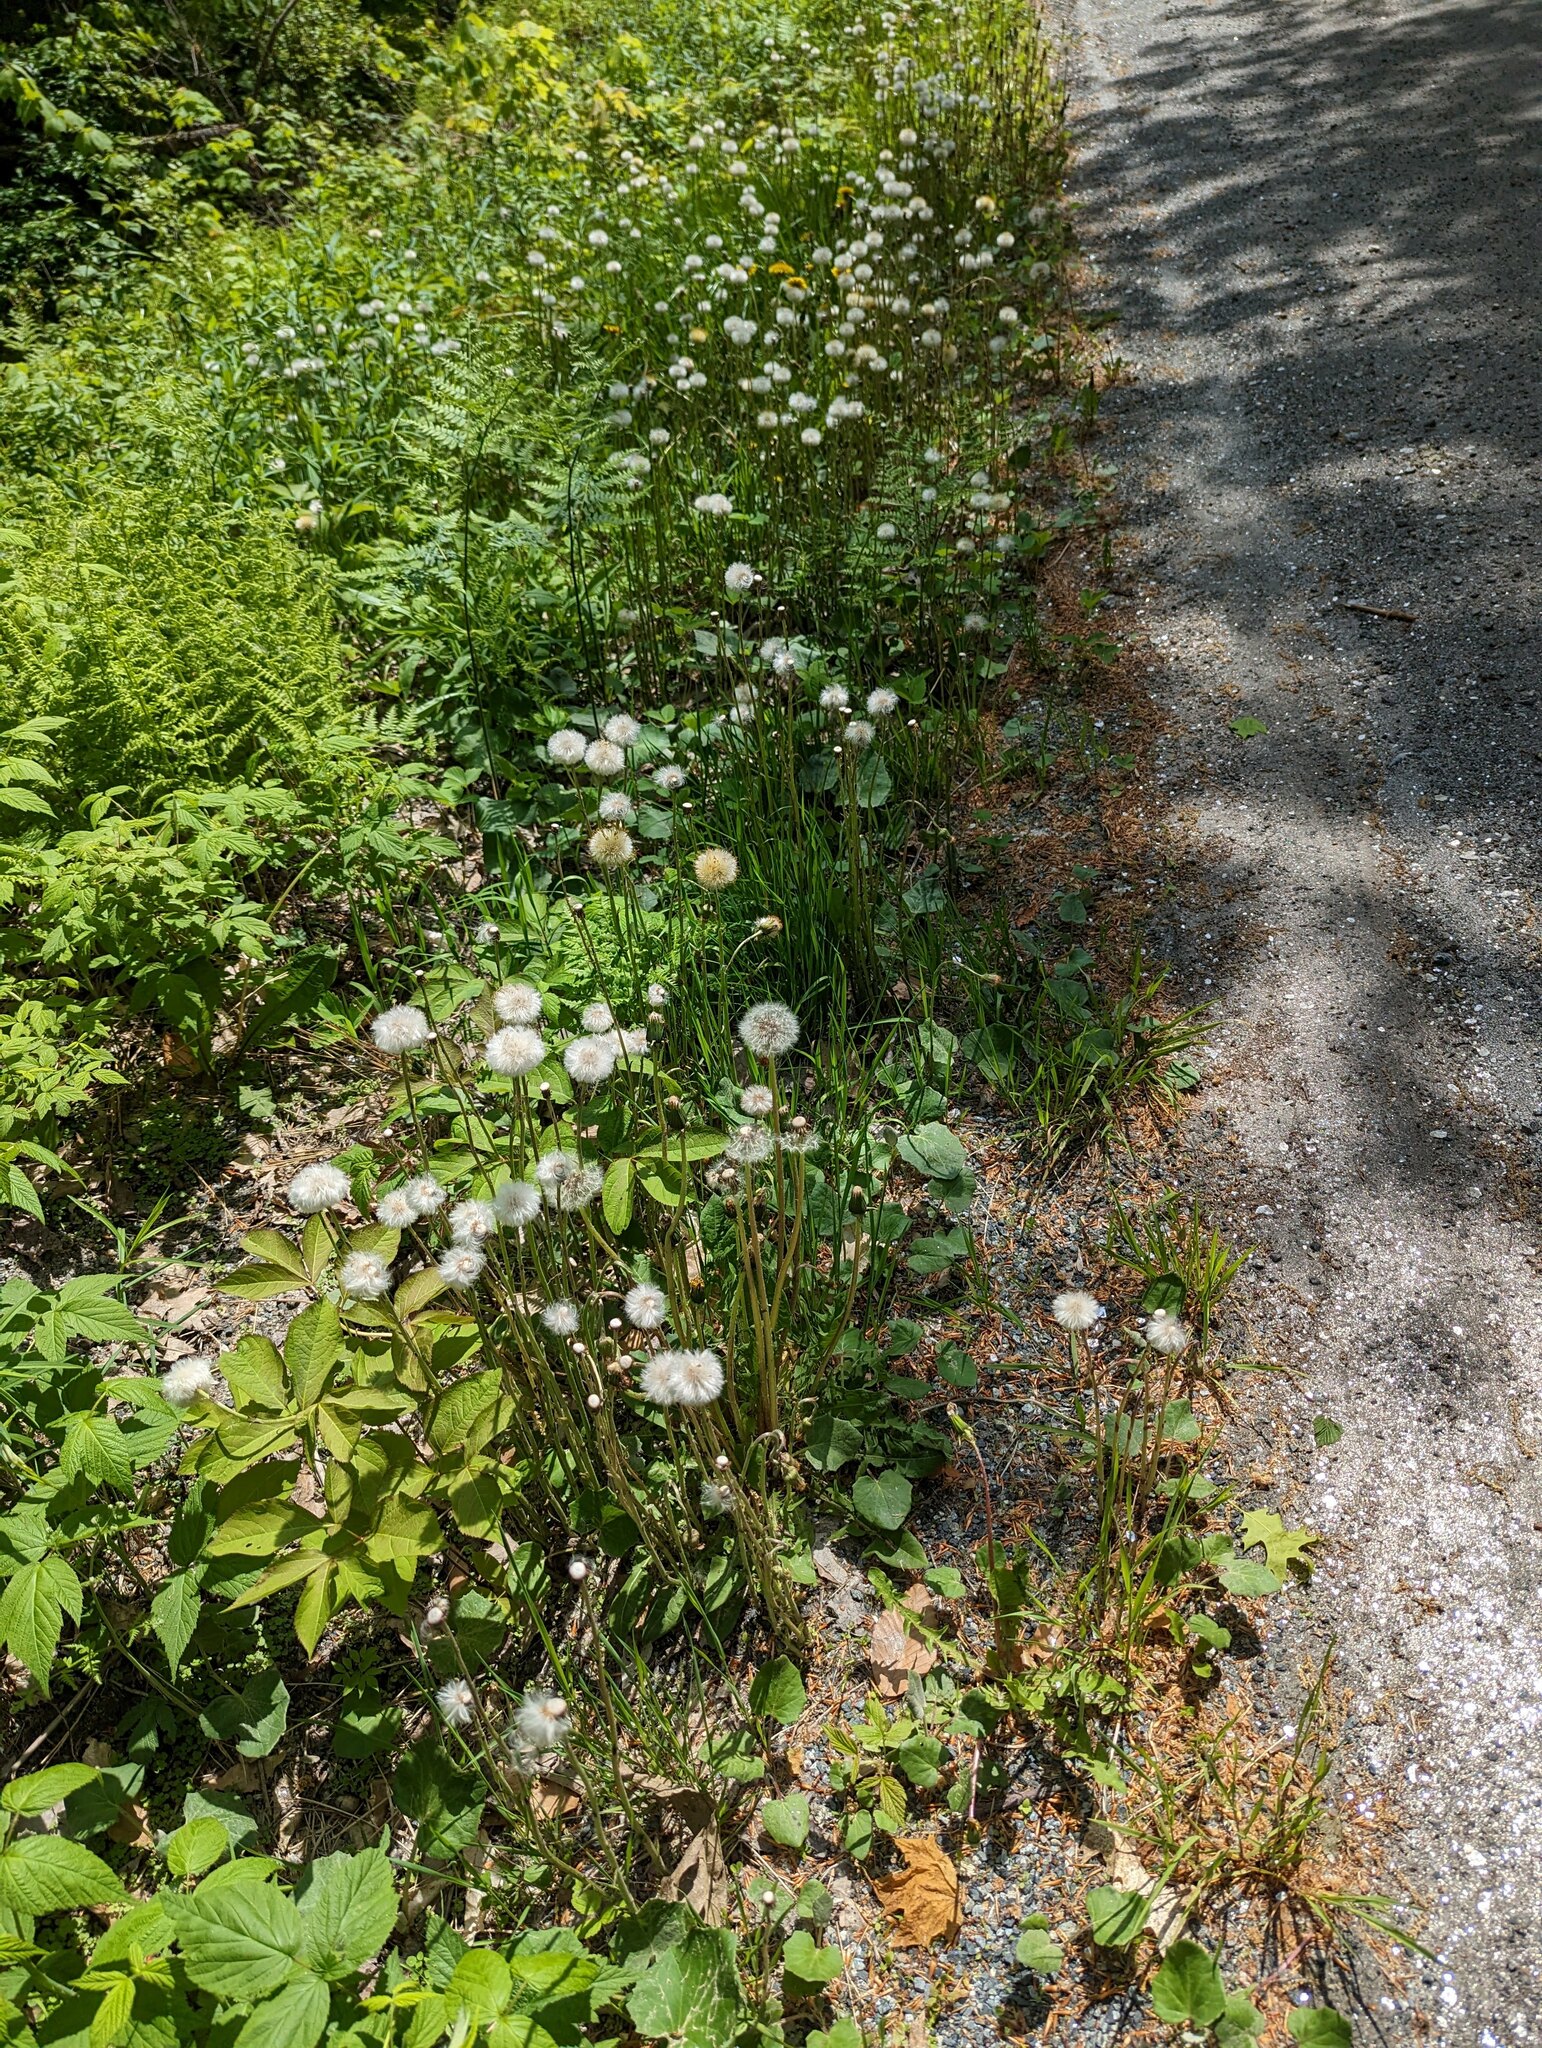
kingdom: Plantae
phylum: Tracheophyta
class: Magnoliopsida
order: Asterales
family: Asteraceae
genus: Tussilago
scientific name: Tussilago farfara
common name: Coltsfoot
